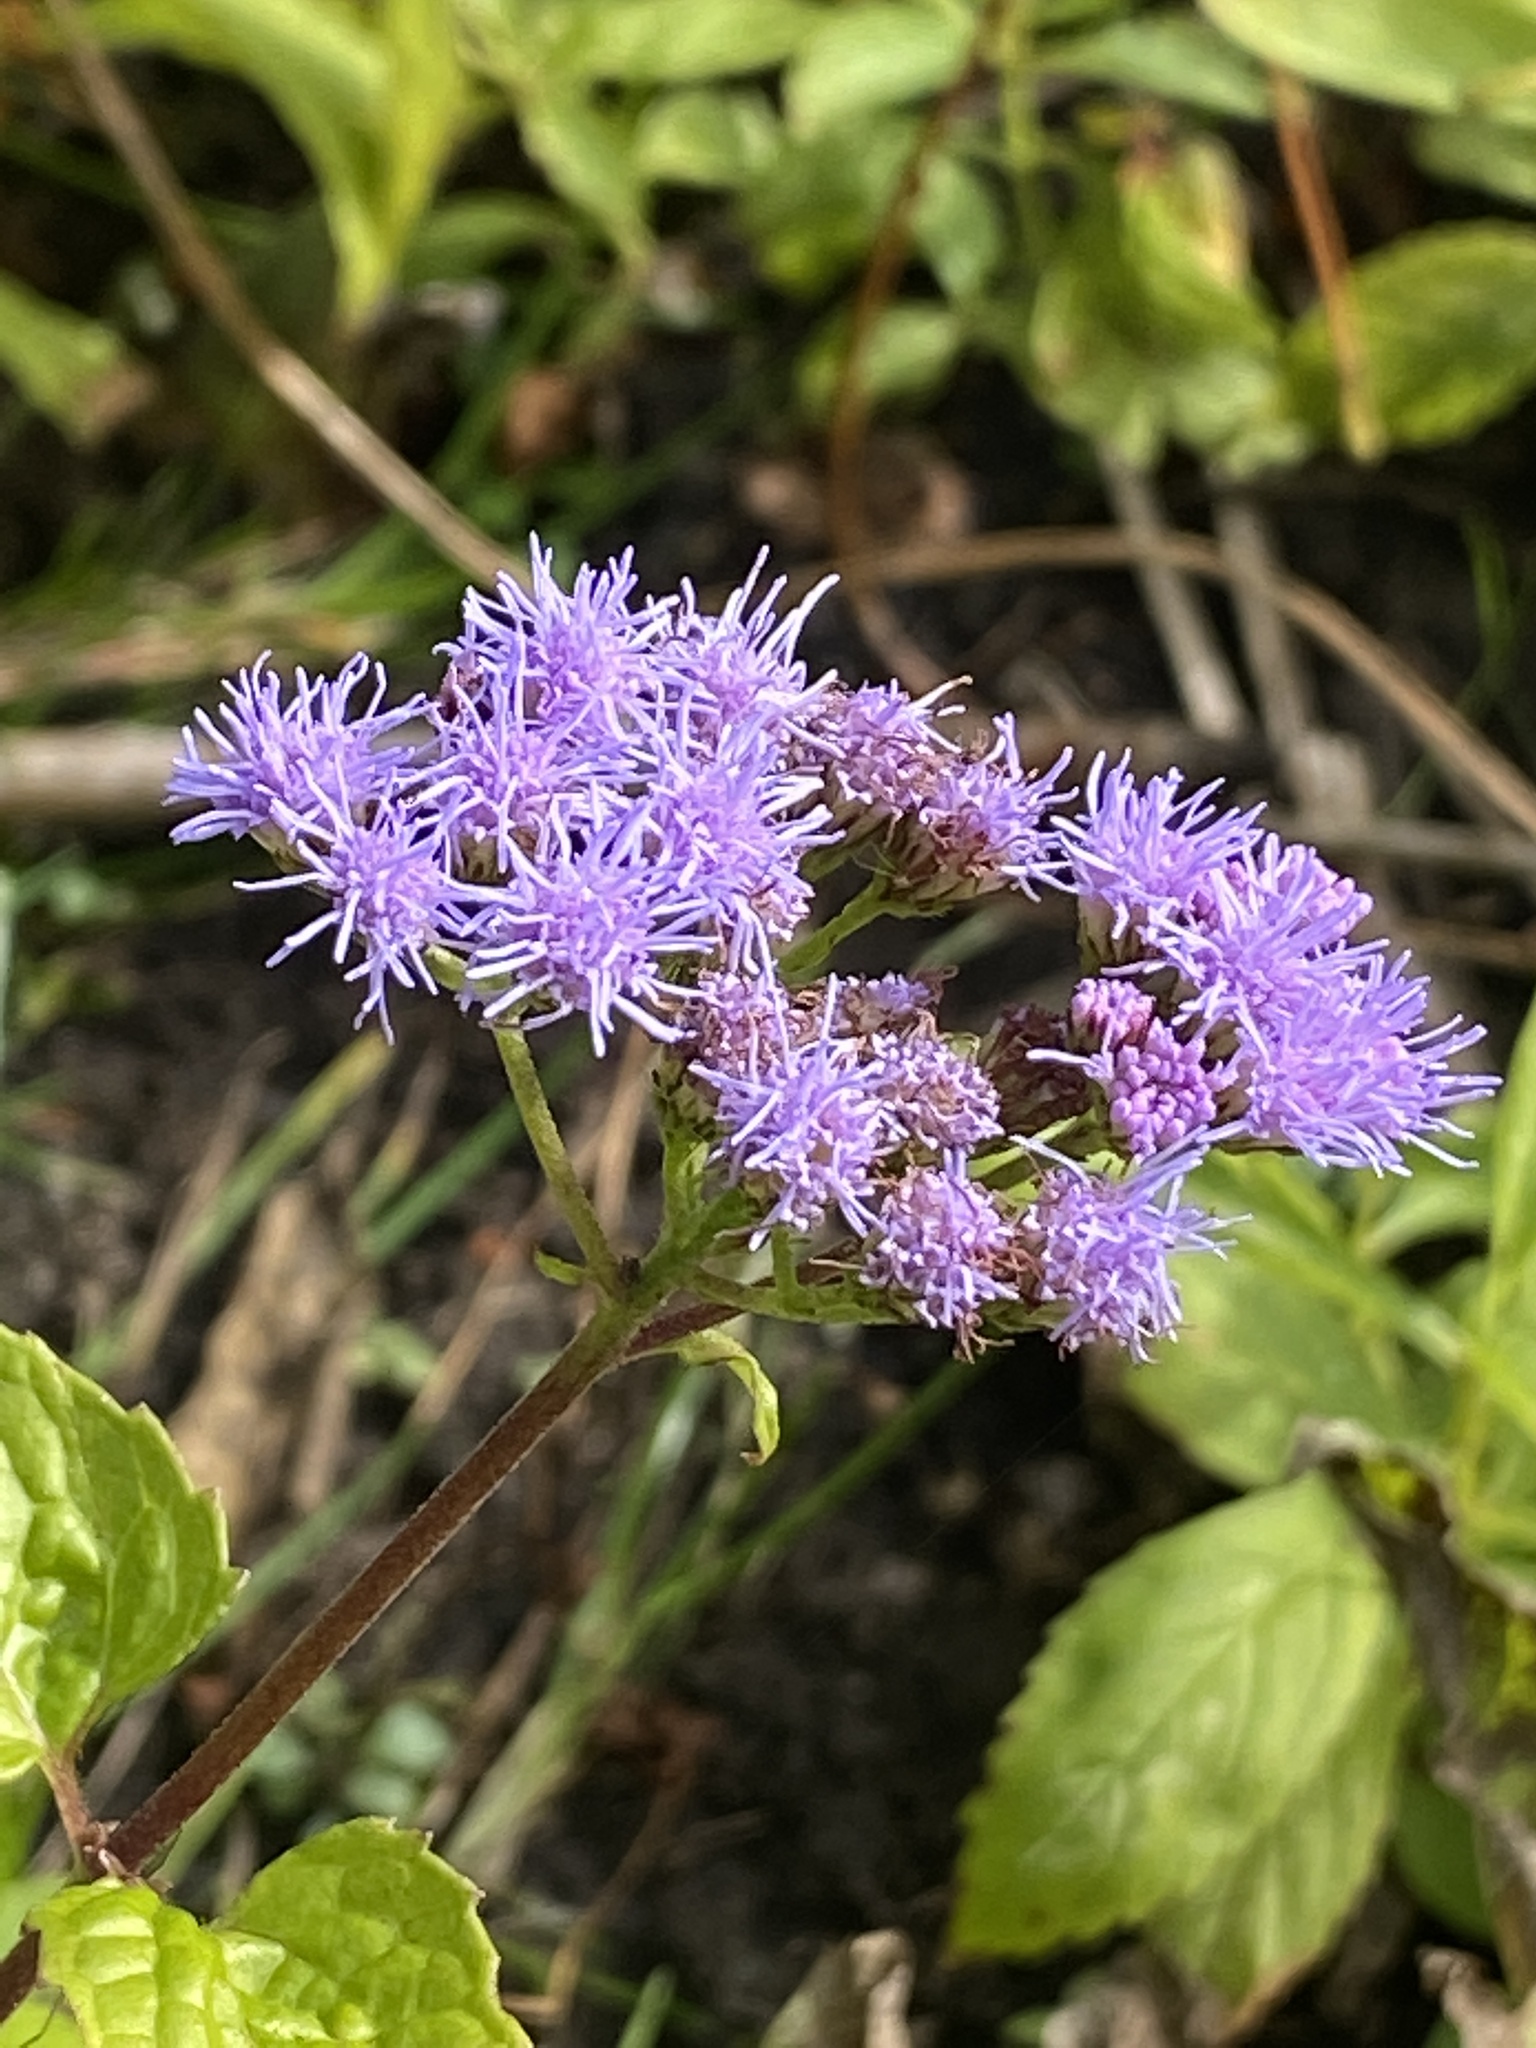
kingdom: Plantae
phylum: Tracheophyta
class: Magnoliopsida
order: Asterales
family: Asteraceae
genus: Conoclinium
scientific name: Conoclinium coelestinum
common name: Blue mistflower
